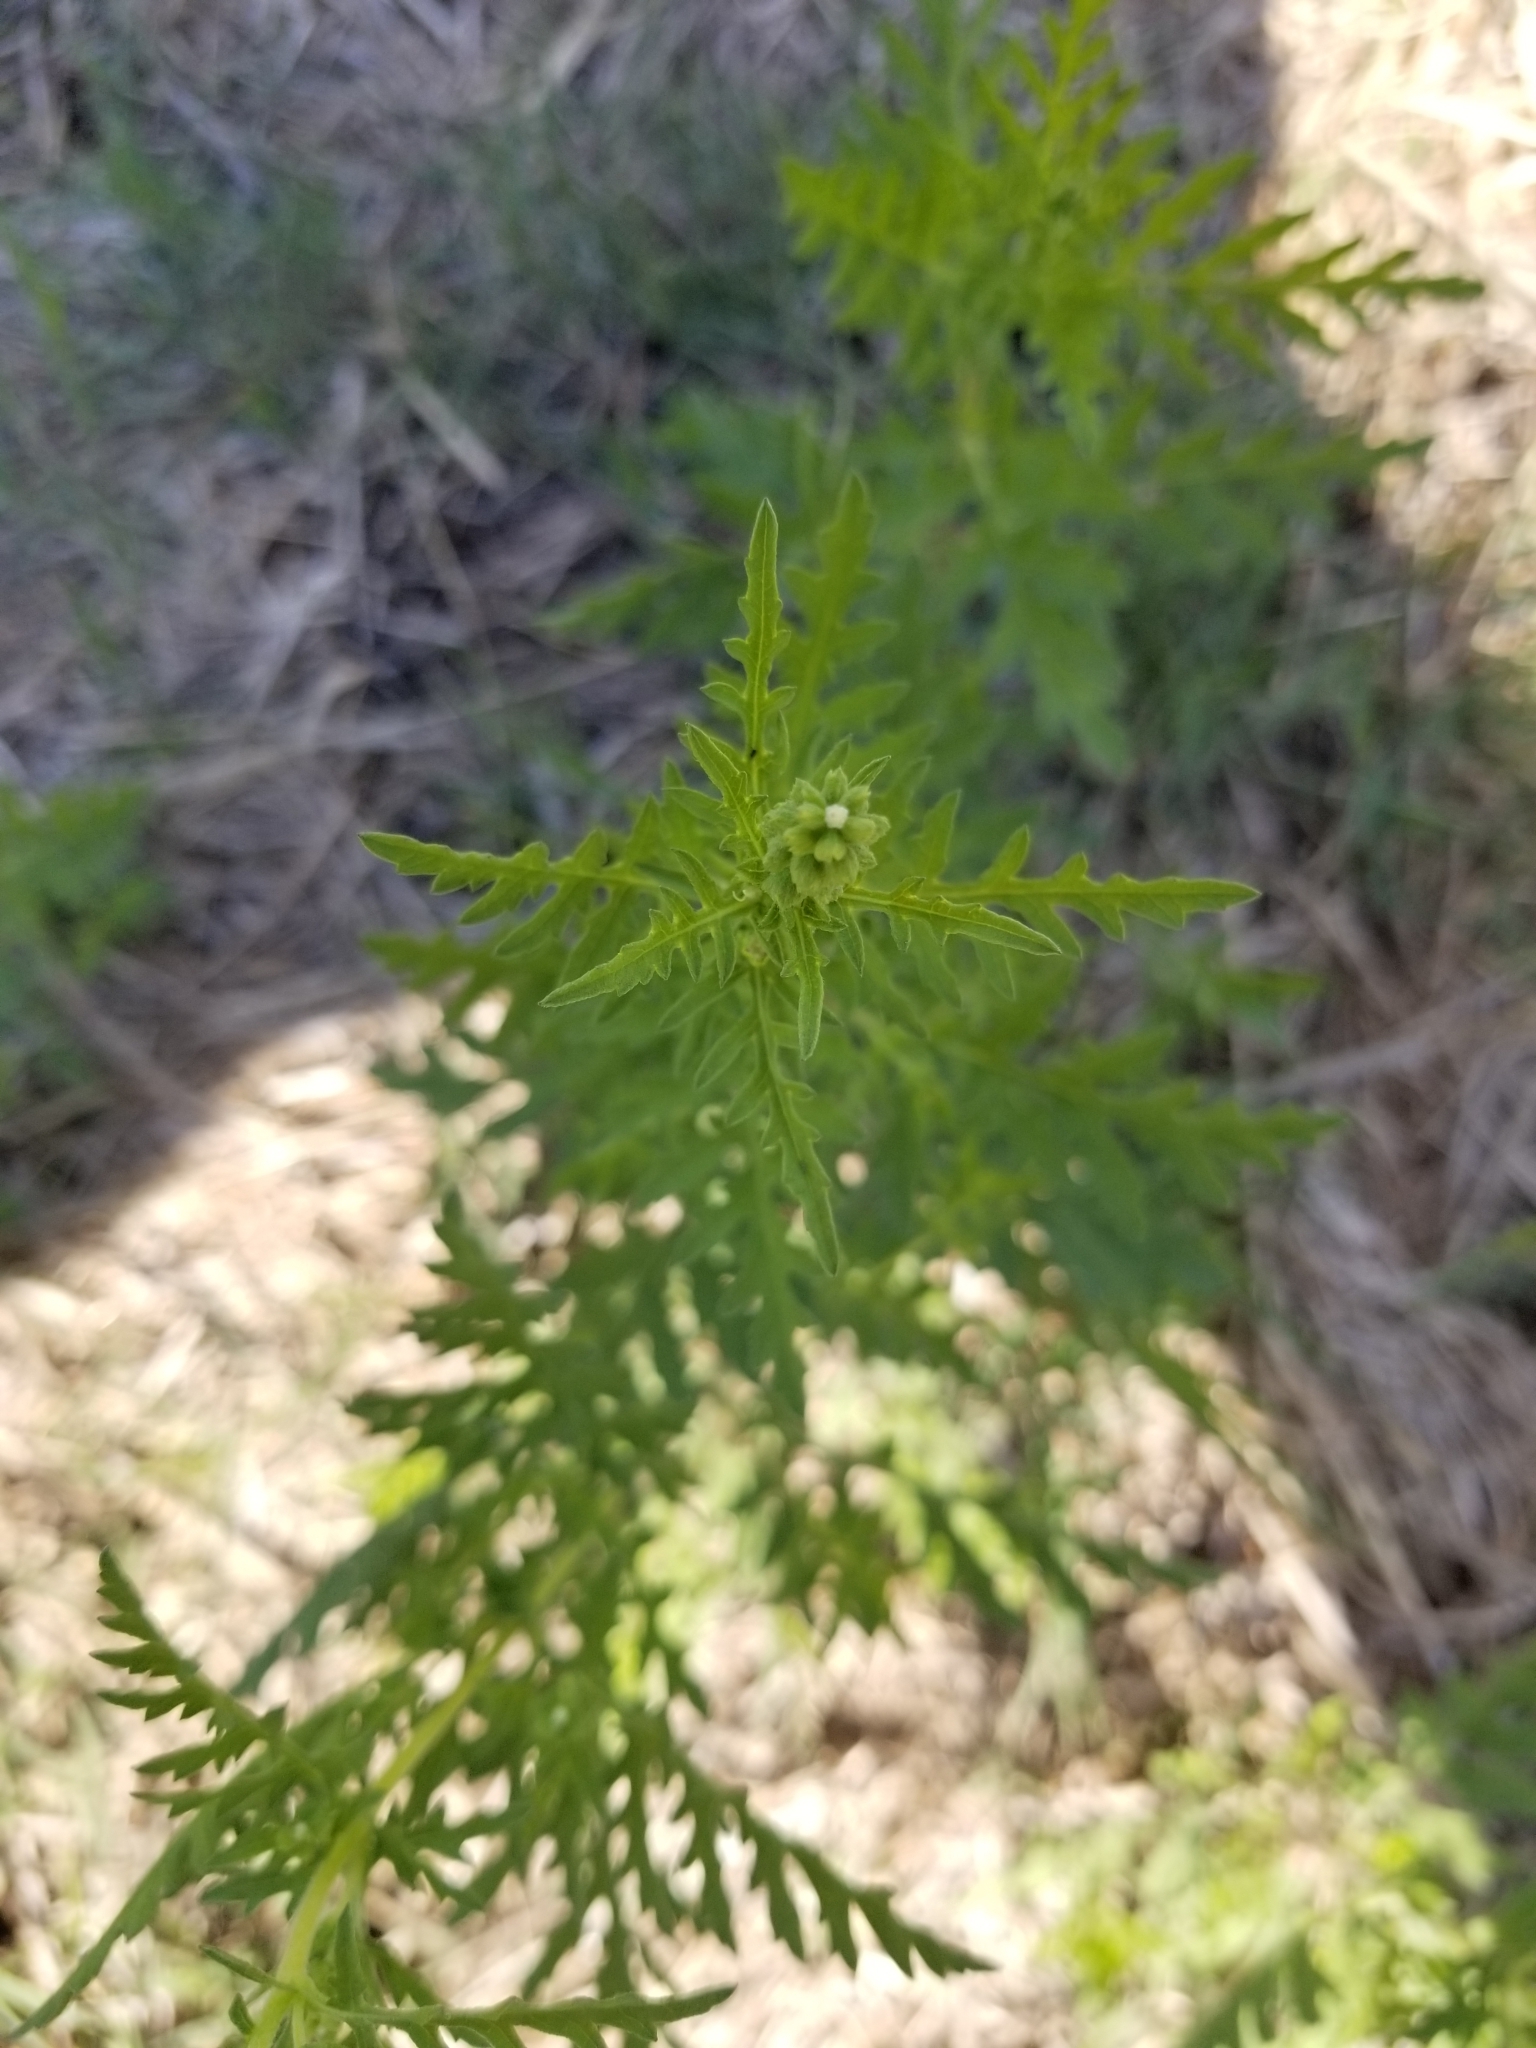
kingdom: Plantae
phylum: Tracheophyta
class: Magnoliopsida
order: Asterales
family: Asteraceae
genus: Ambrosia
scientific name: Ambrosia psilostachya
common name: Perennial ragweed
